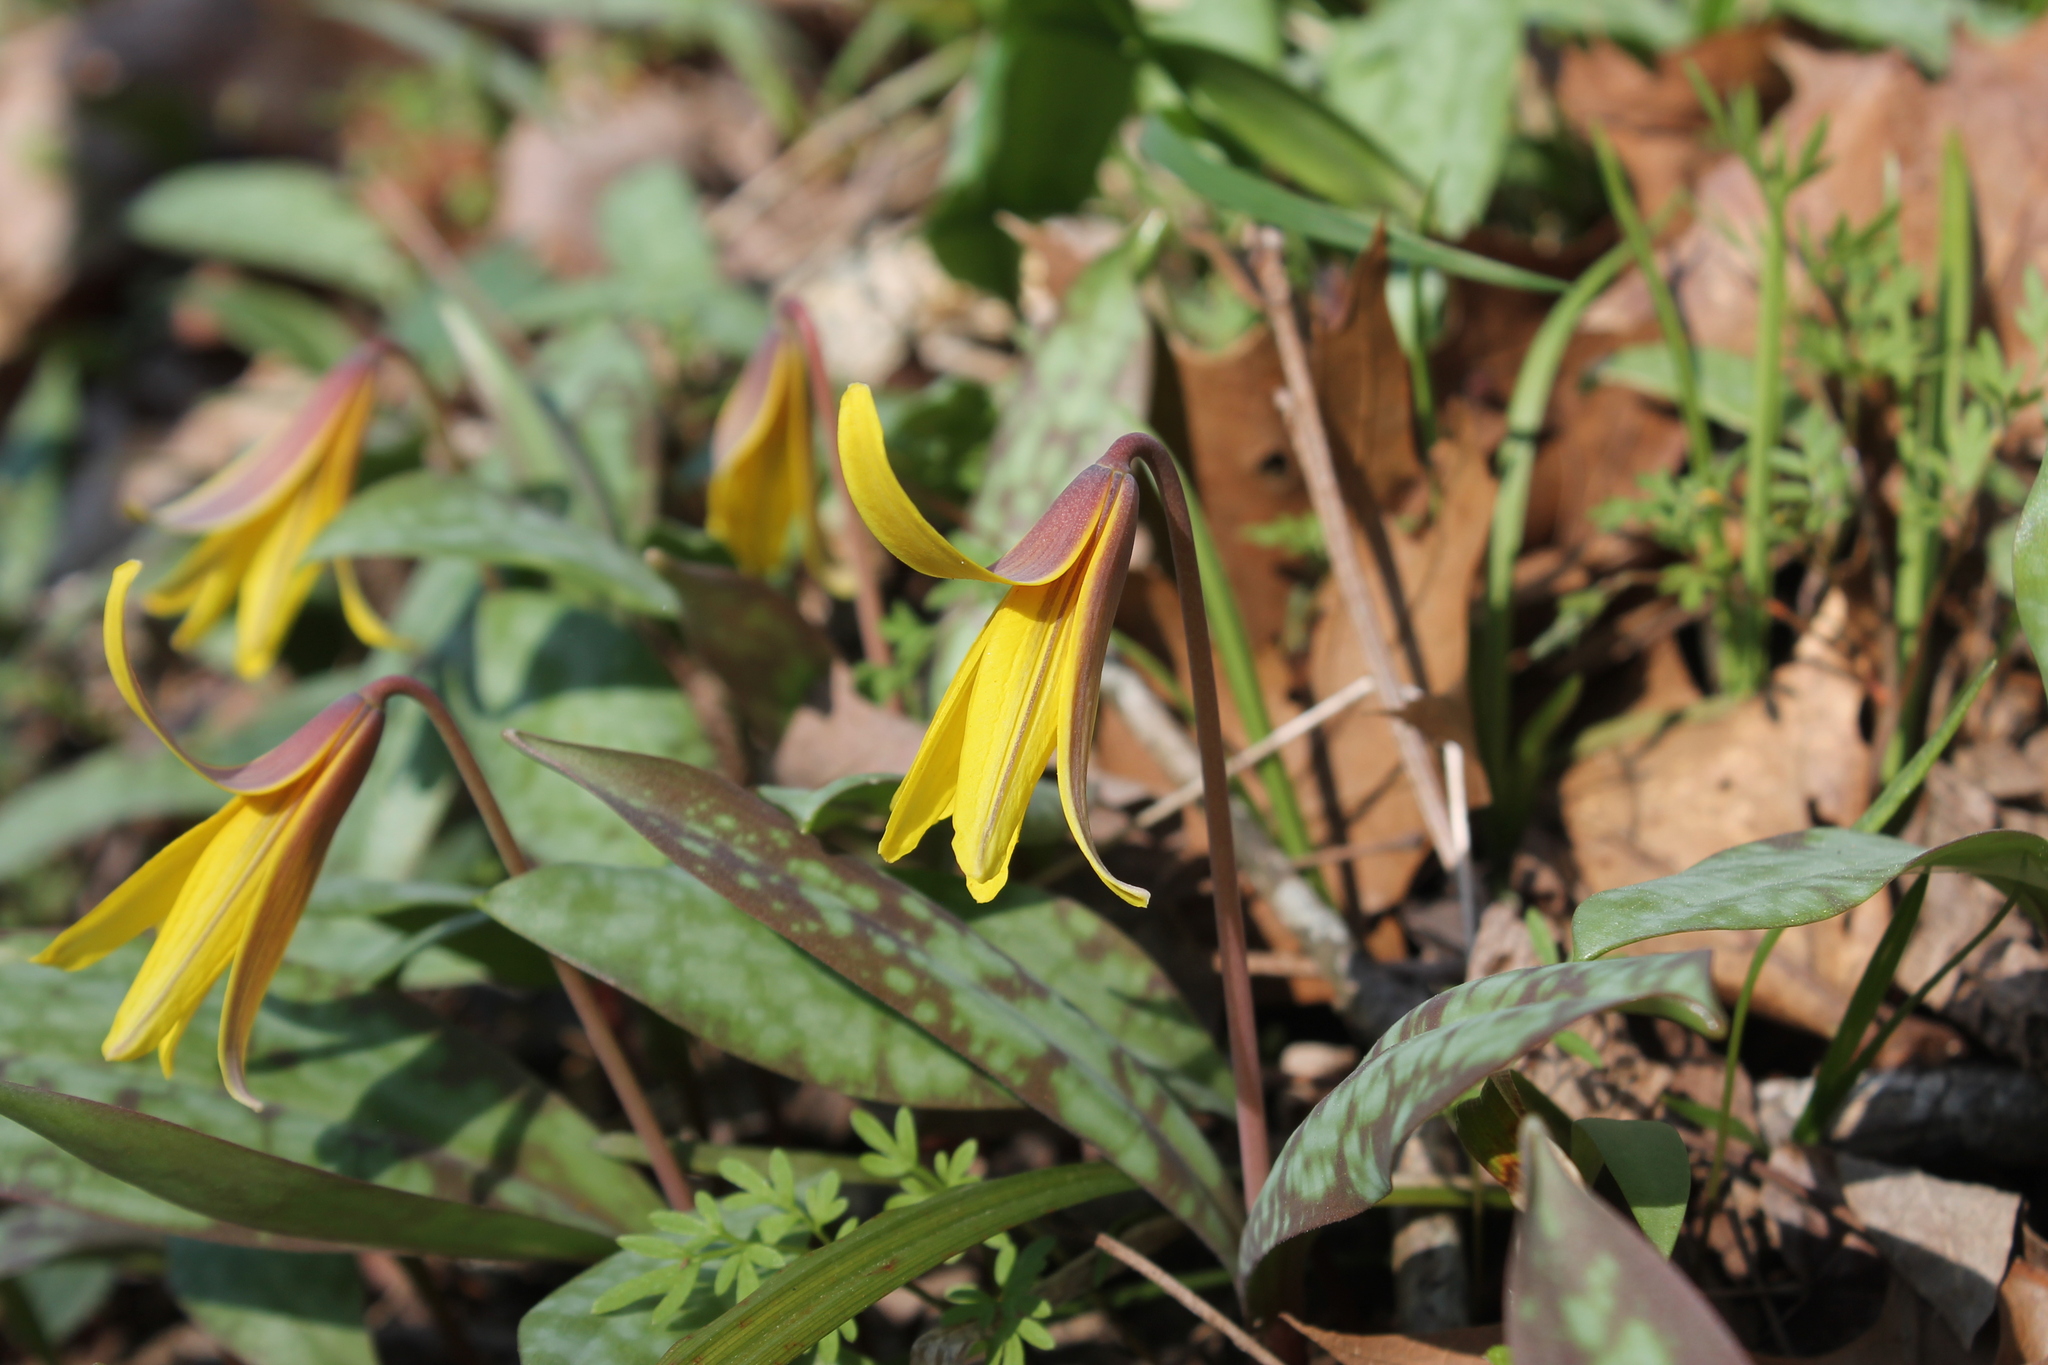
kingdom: Plantae
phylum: Tracheophyta
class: Liliopsida
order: Liliales
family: Liliaceae
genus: Erythronium
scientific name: Erythronium americanum
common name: Yellow adder's-tongue
